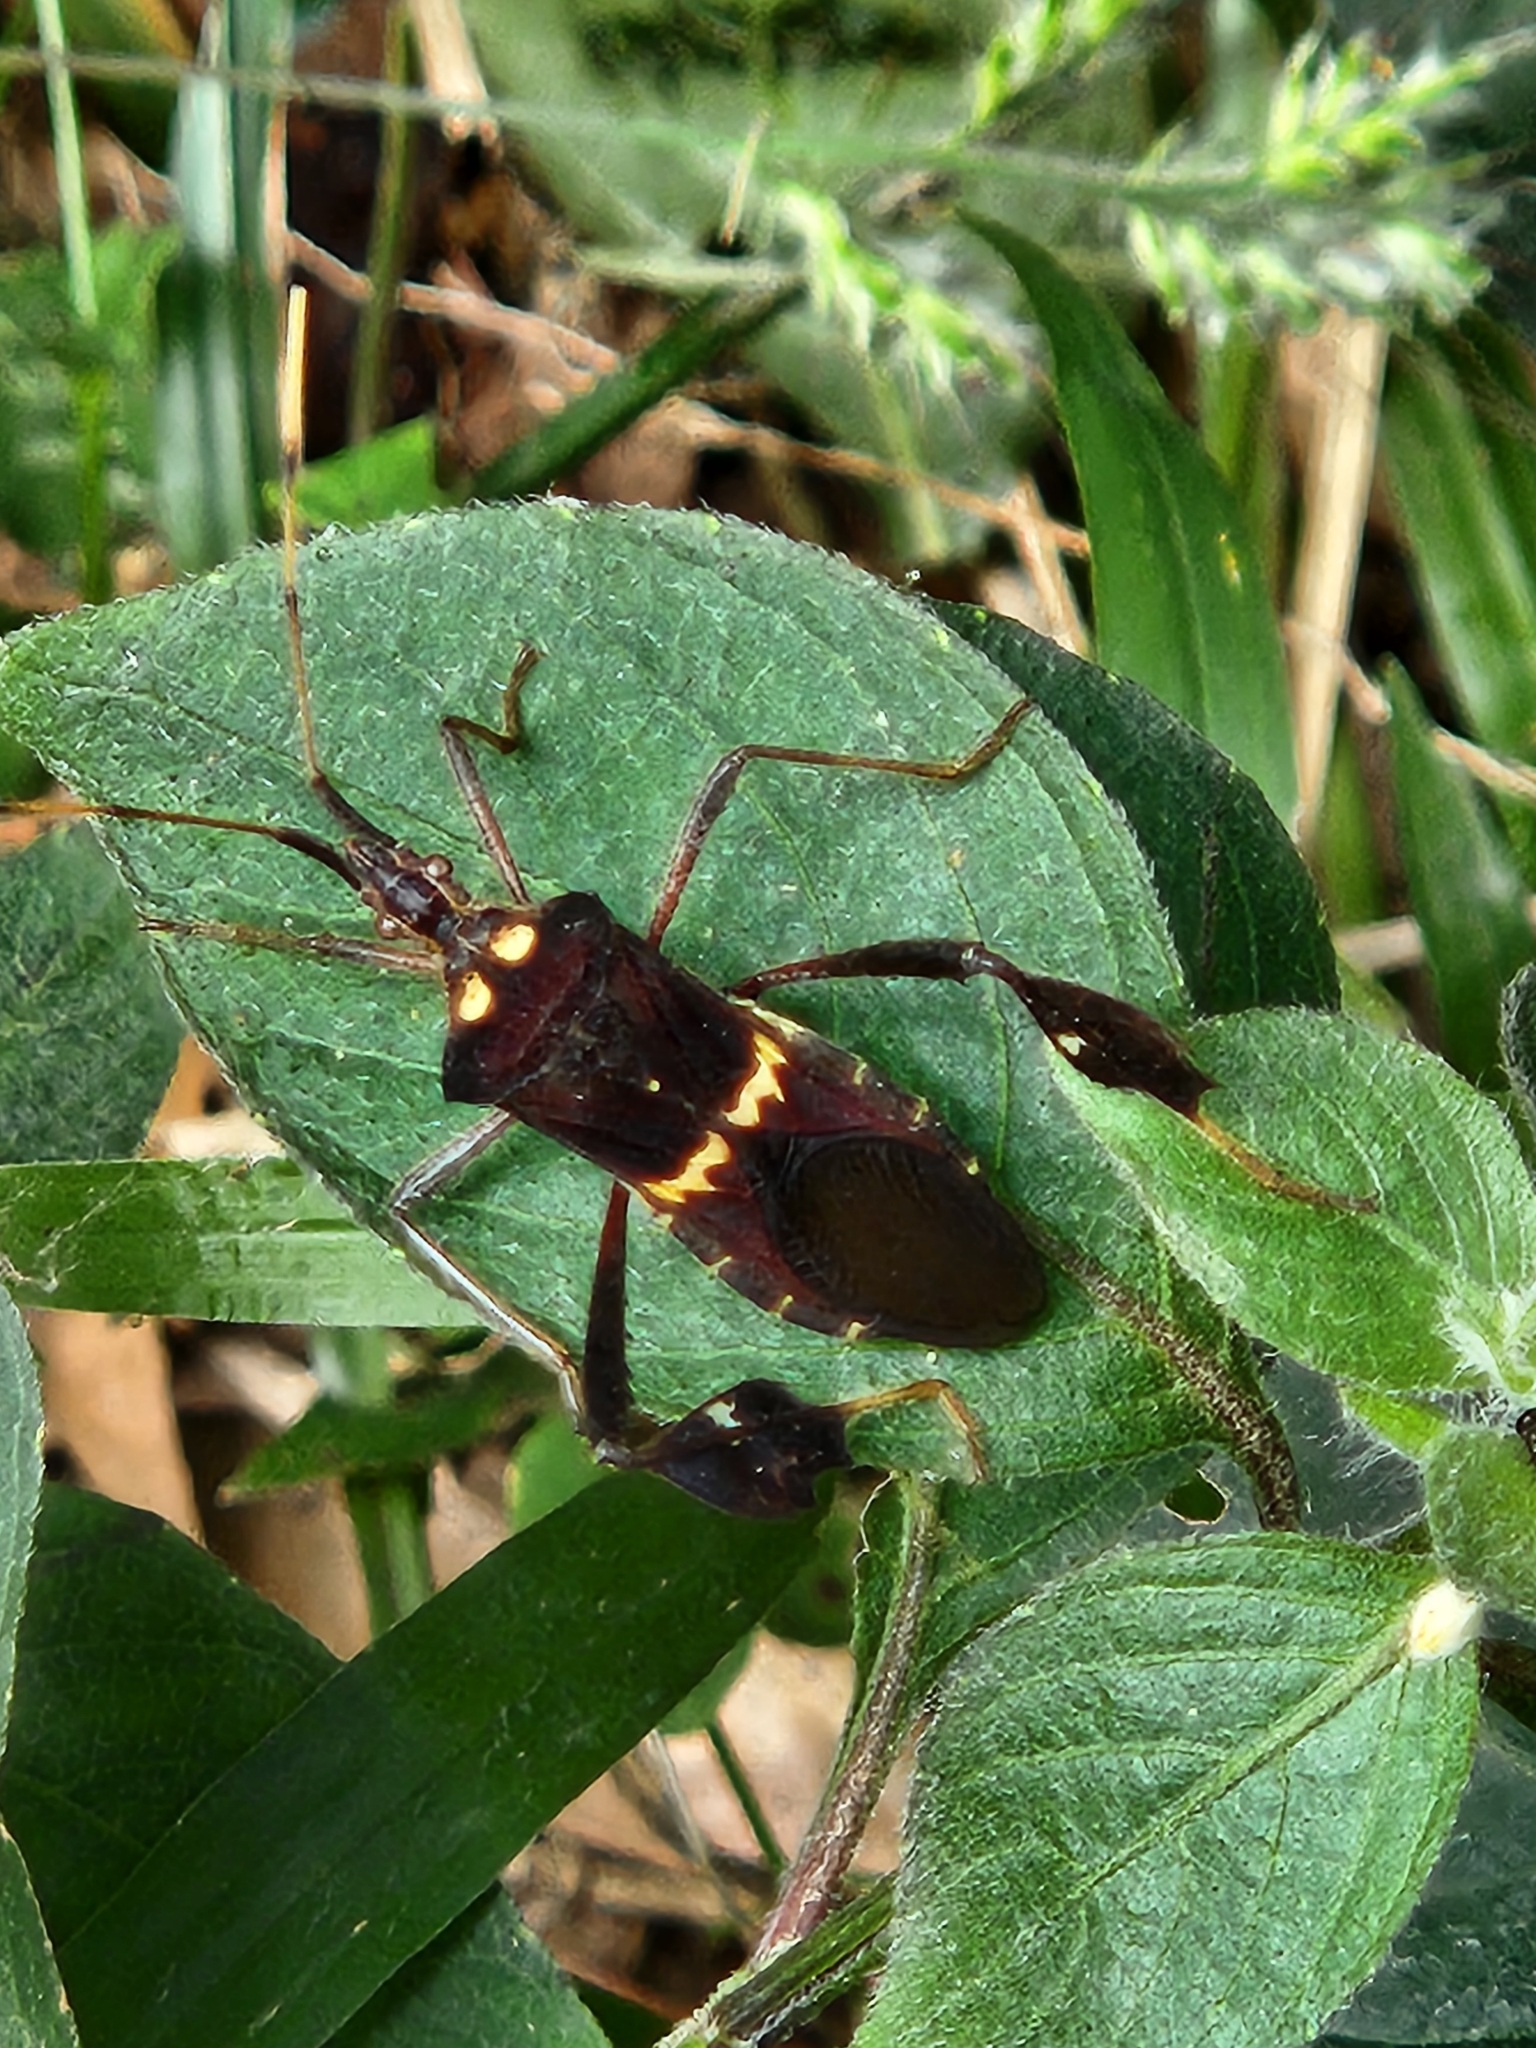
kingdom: Animalia
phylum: Arthropoda
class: Insecta
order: Hemiptera
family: Coreidae
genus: Leptoglossus
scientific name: Leptoglossus zonatus
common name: Large-legged bug
